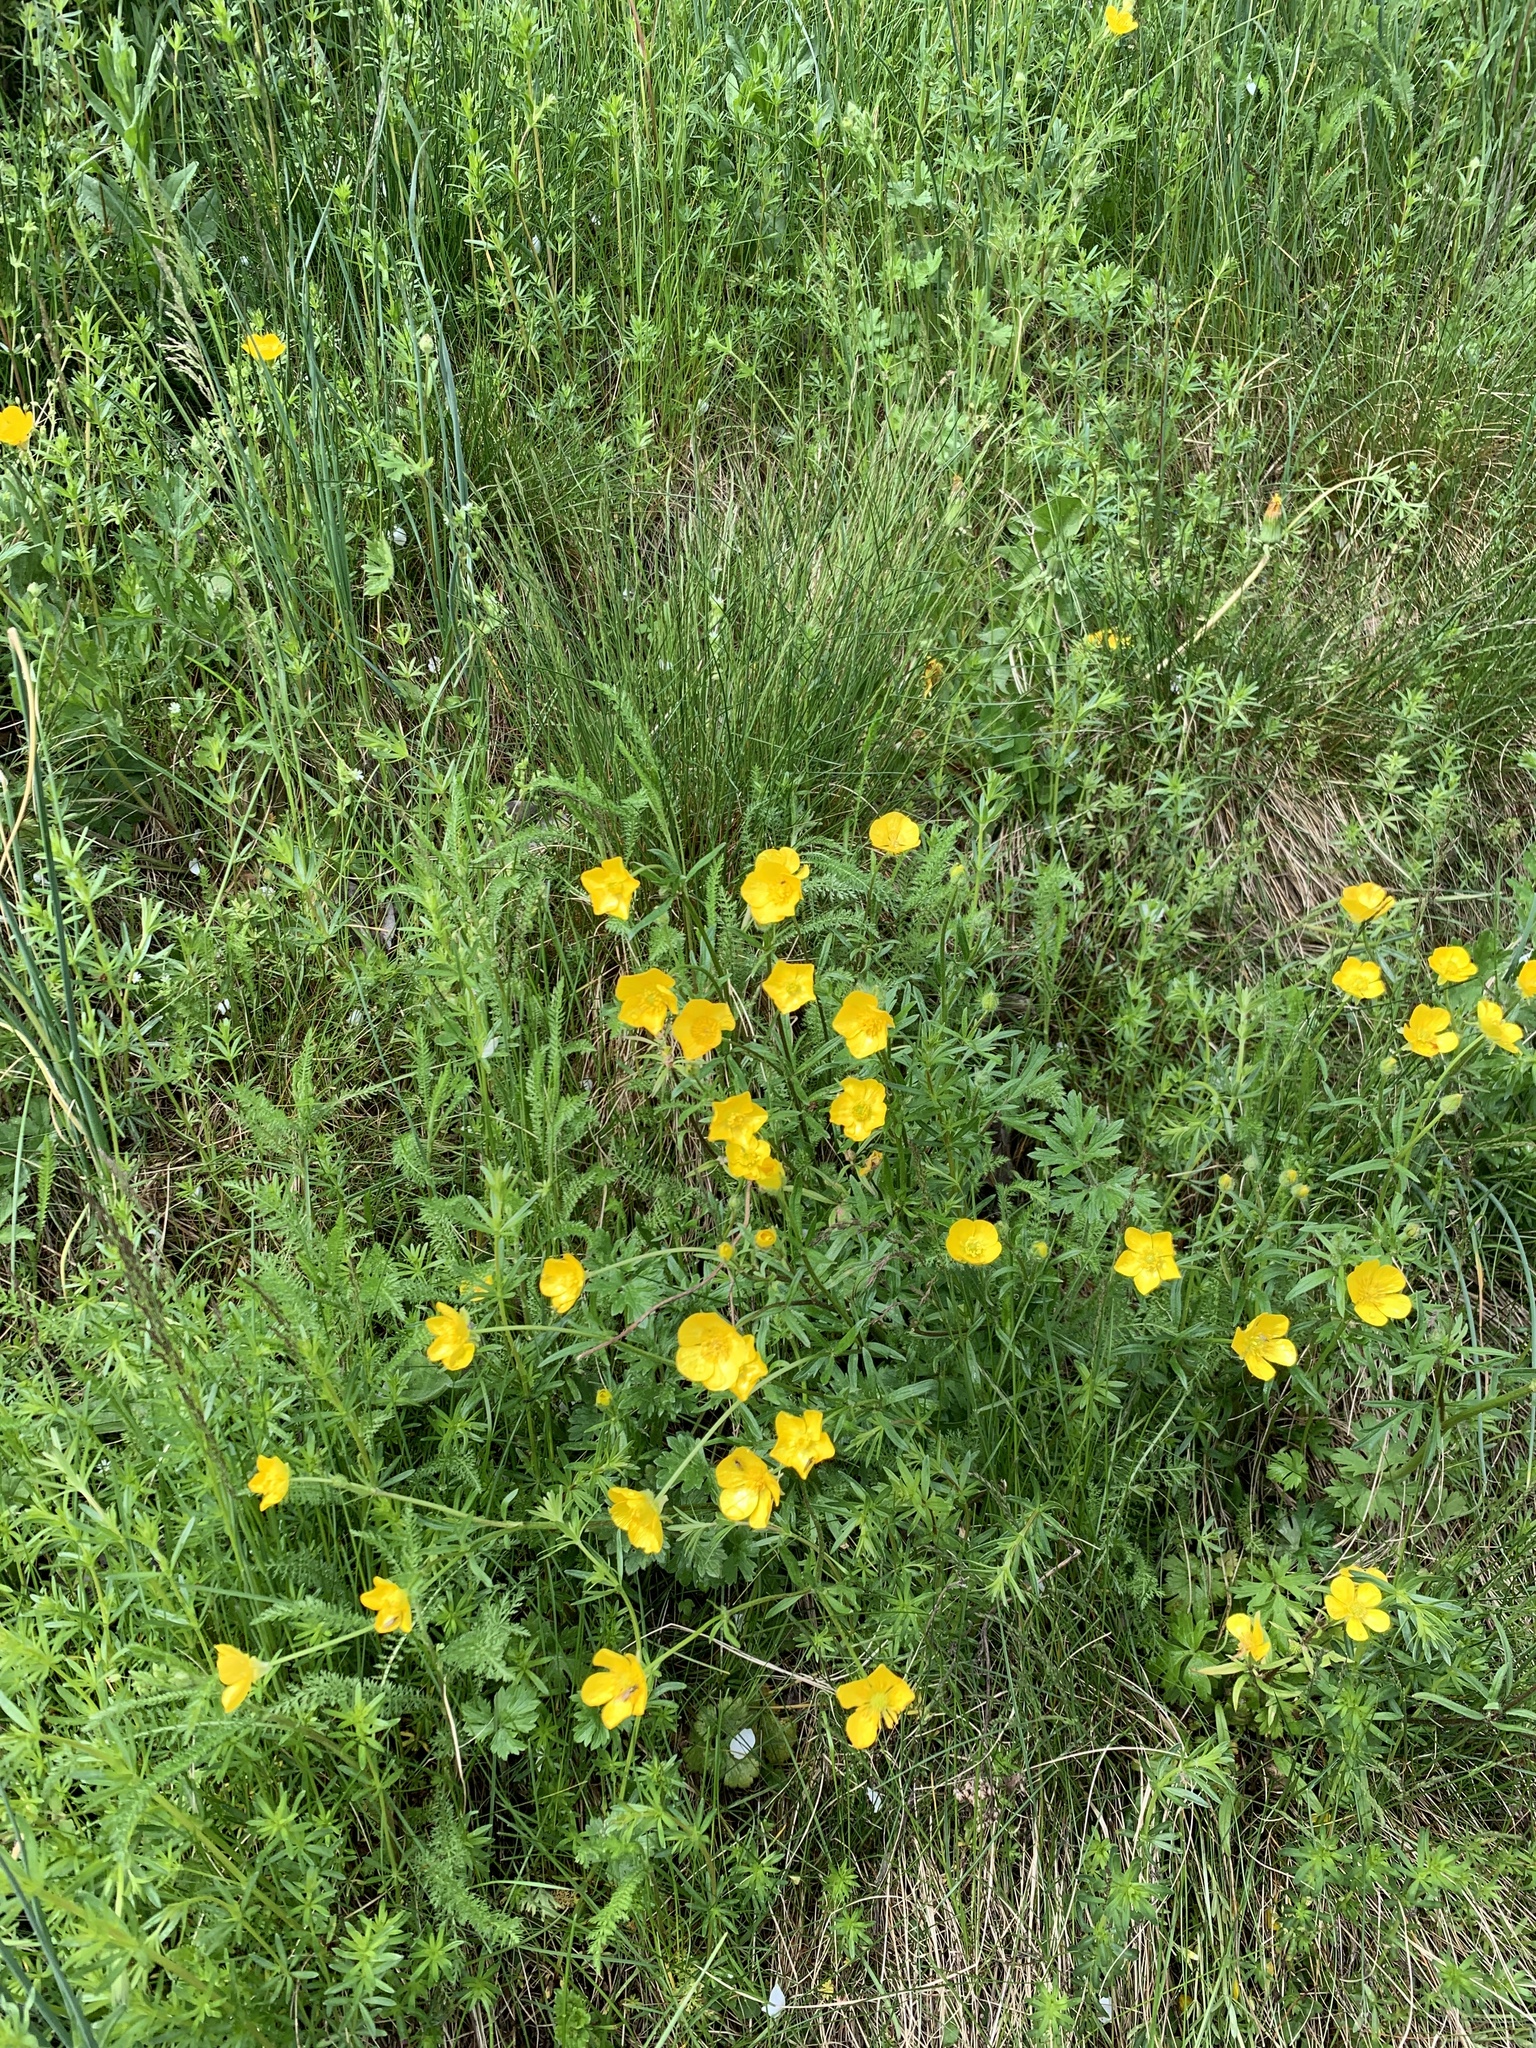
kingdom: Plantae
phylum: Tracheophyta
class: Magnoliopsida
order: Ranunculales
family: Ranunculaceae
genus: Ranunculus
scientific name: Ranunculus bulbosus
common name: Bulbous buttercup
